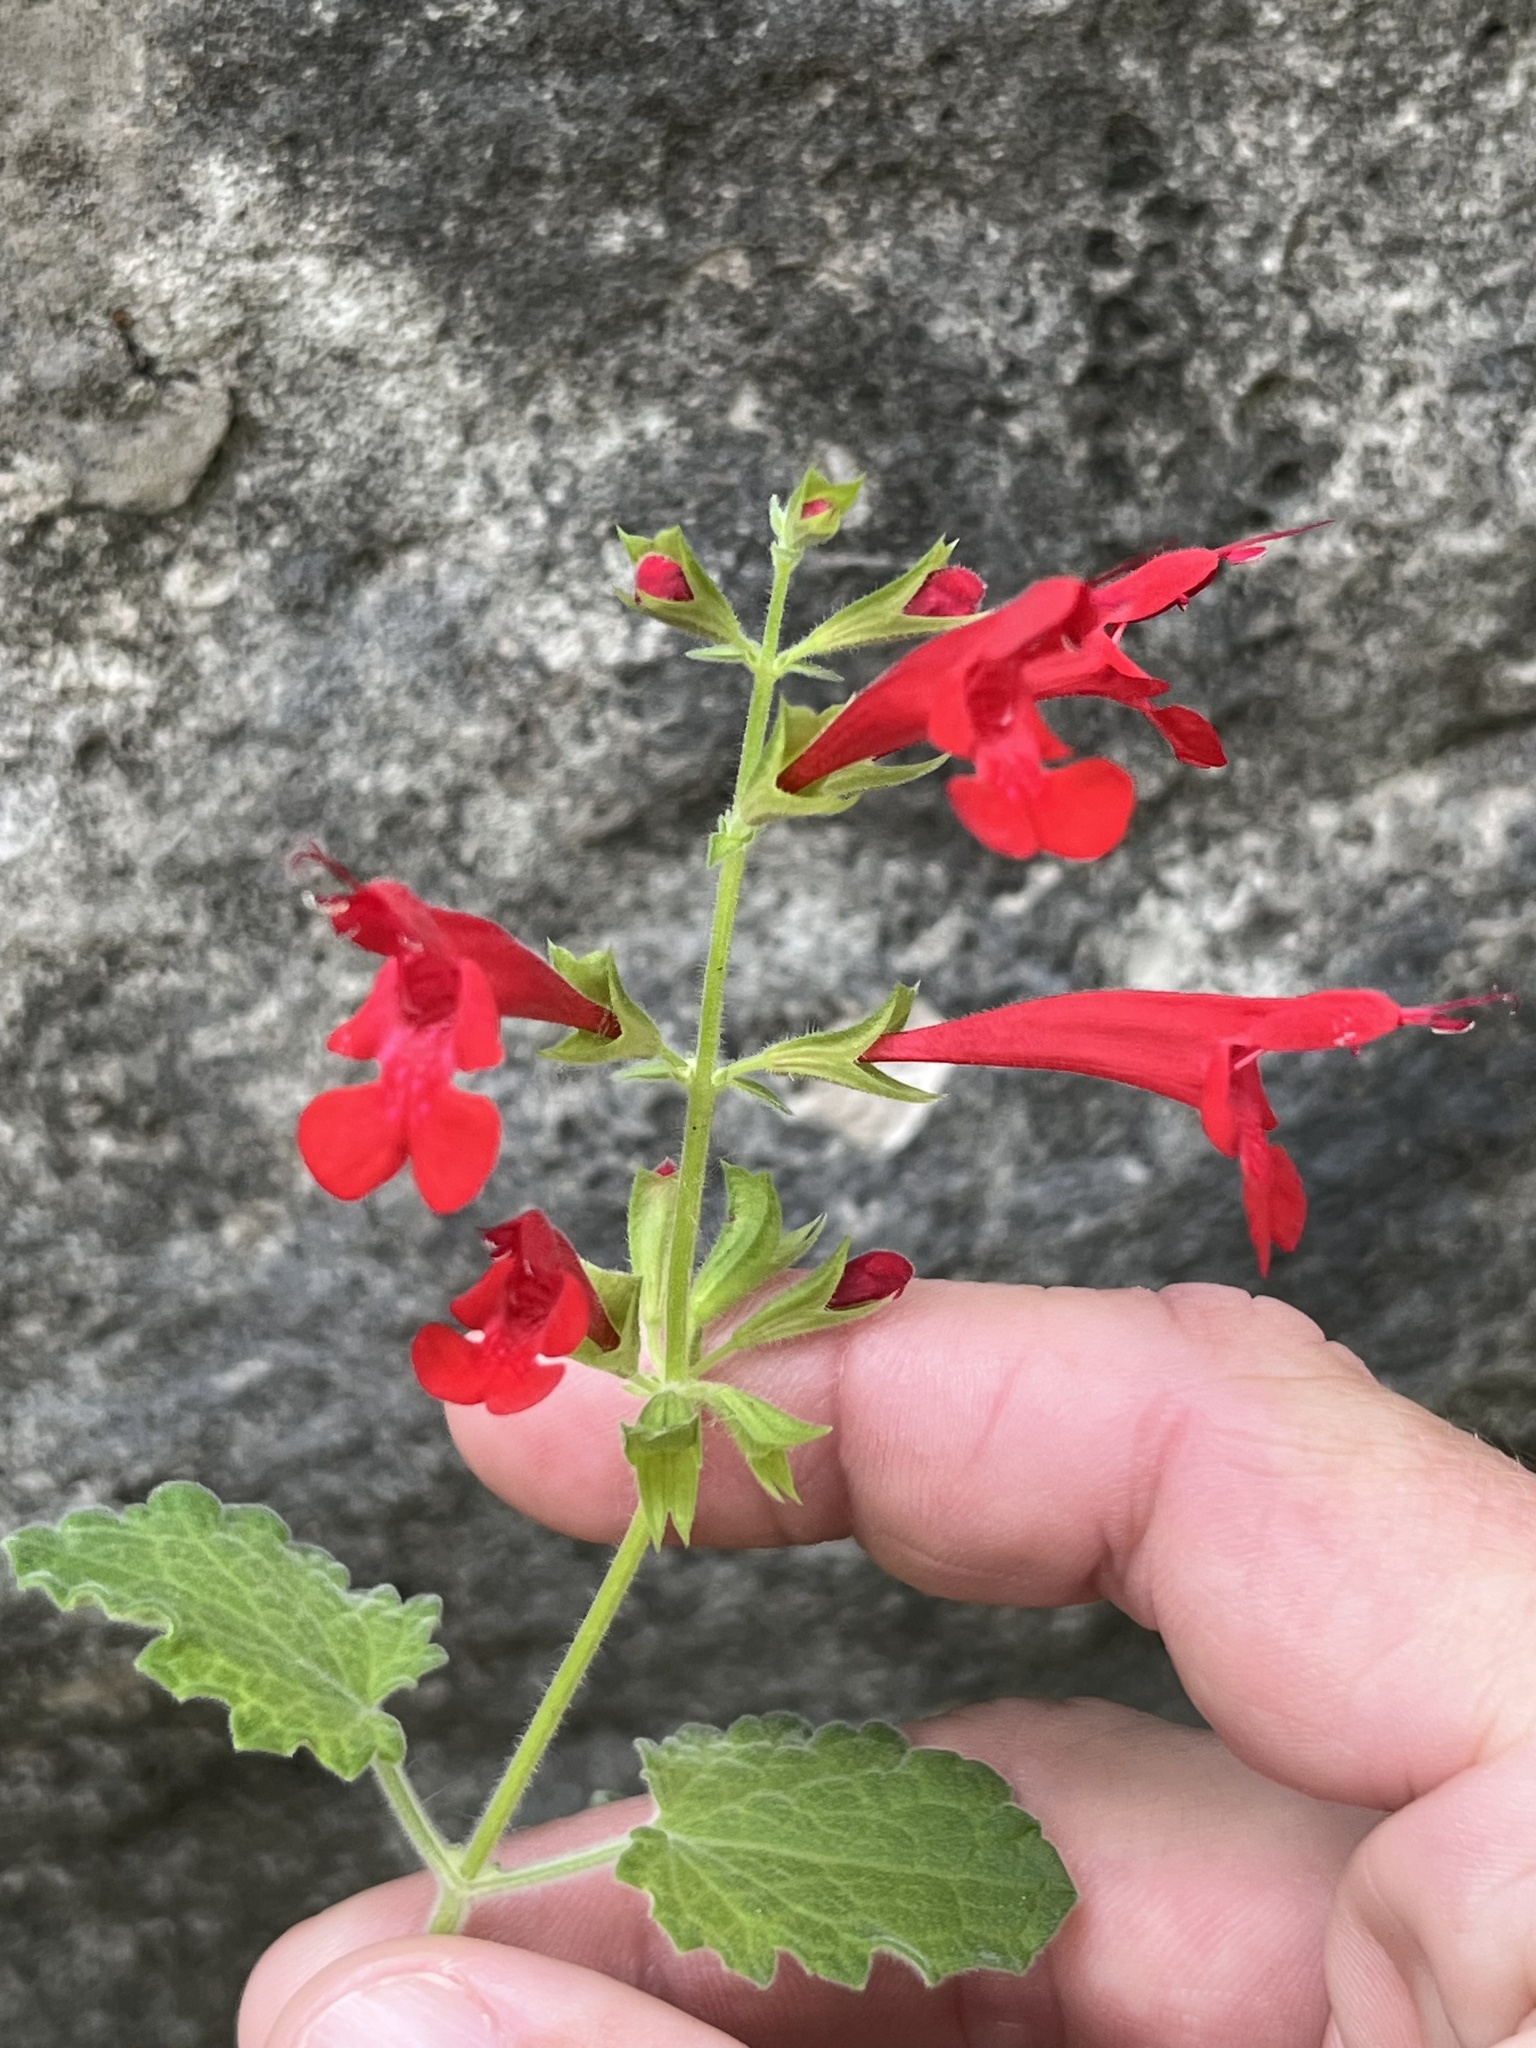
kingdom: Plantae
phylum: Tracheophyta
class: Magnoliopsida
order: Lamiales
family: Lamiaceae
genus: Salvia
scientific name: Salvia roemeriana
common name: Cedar sage
